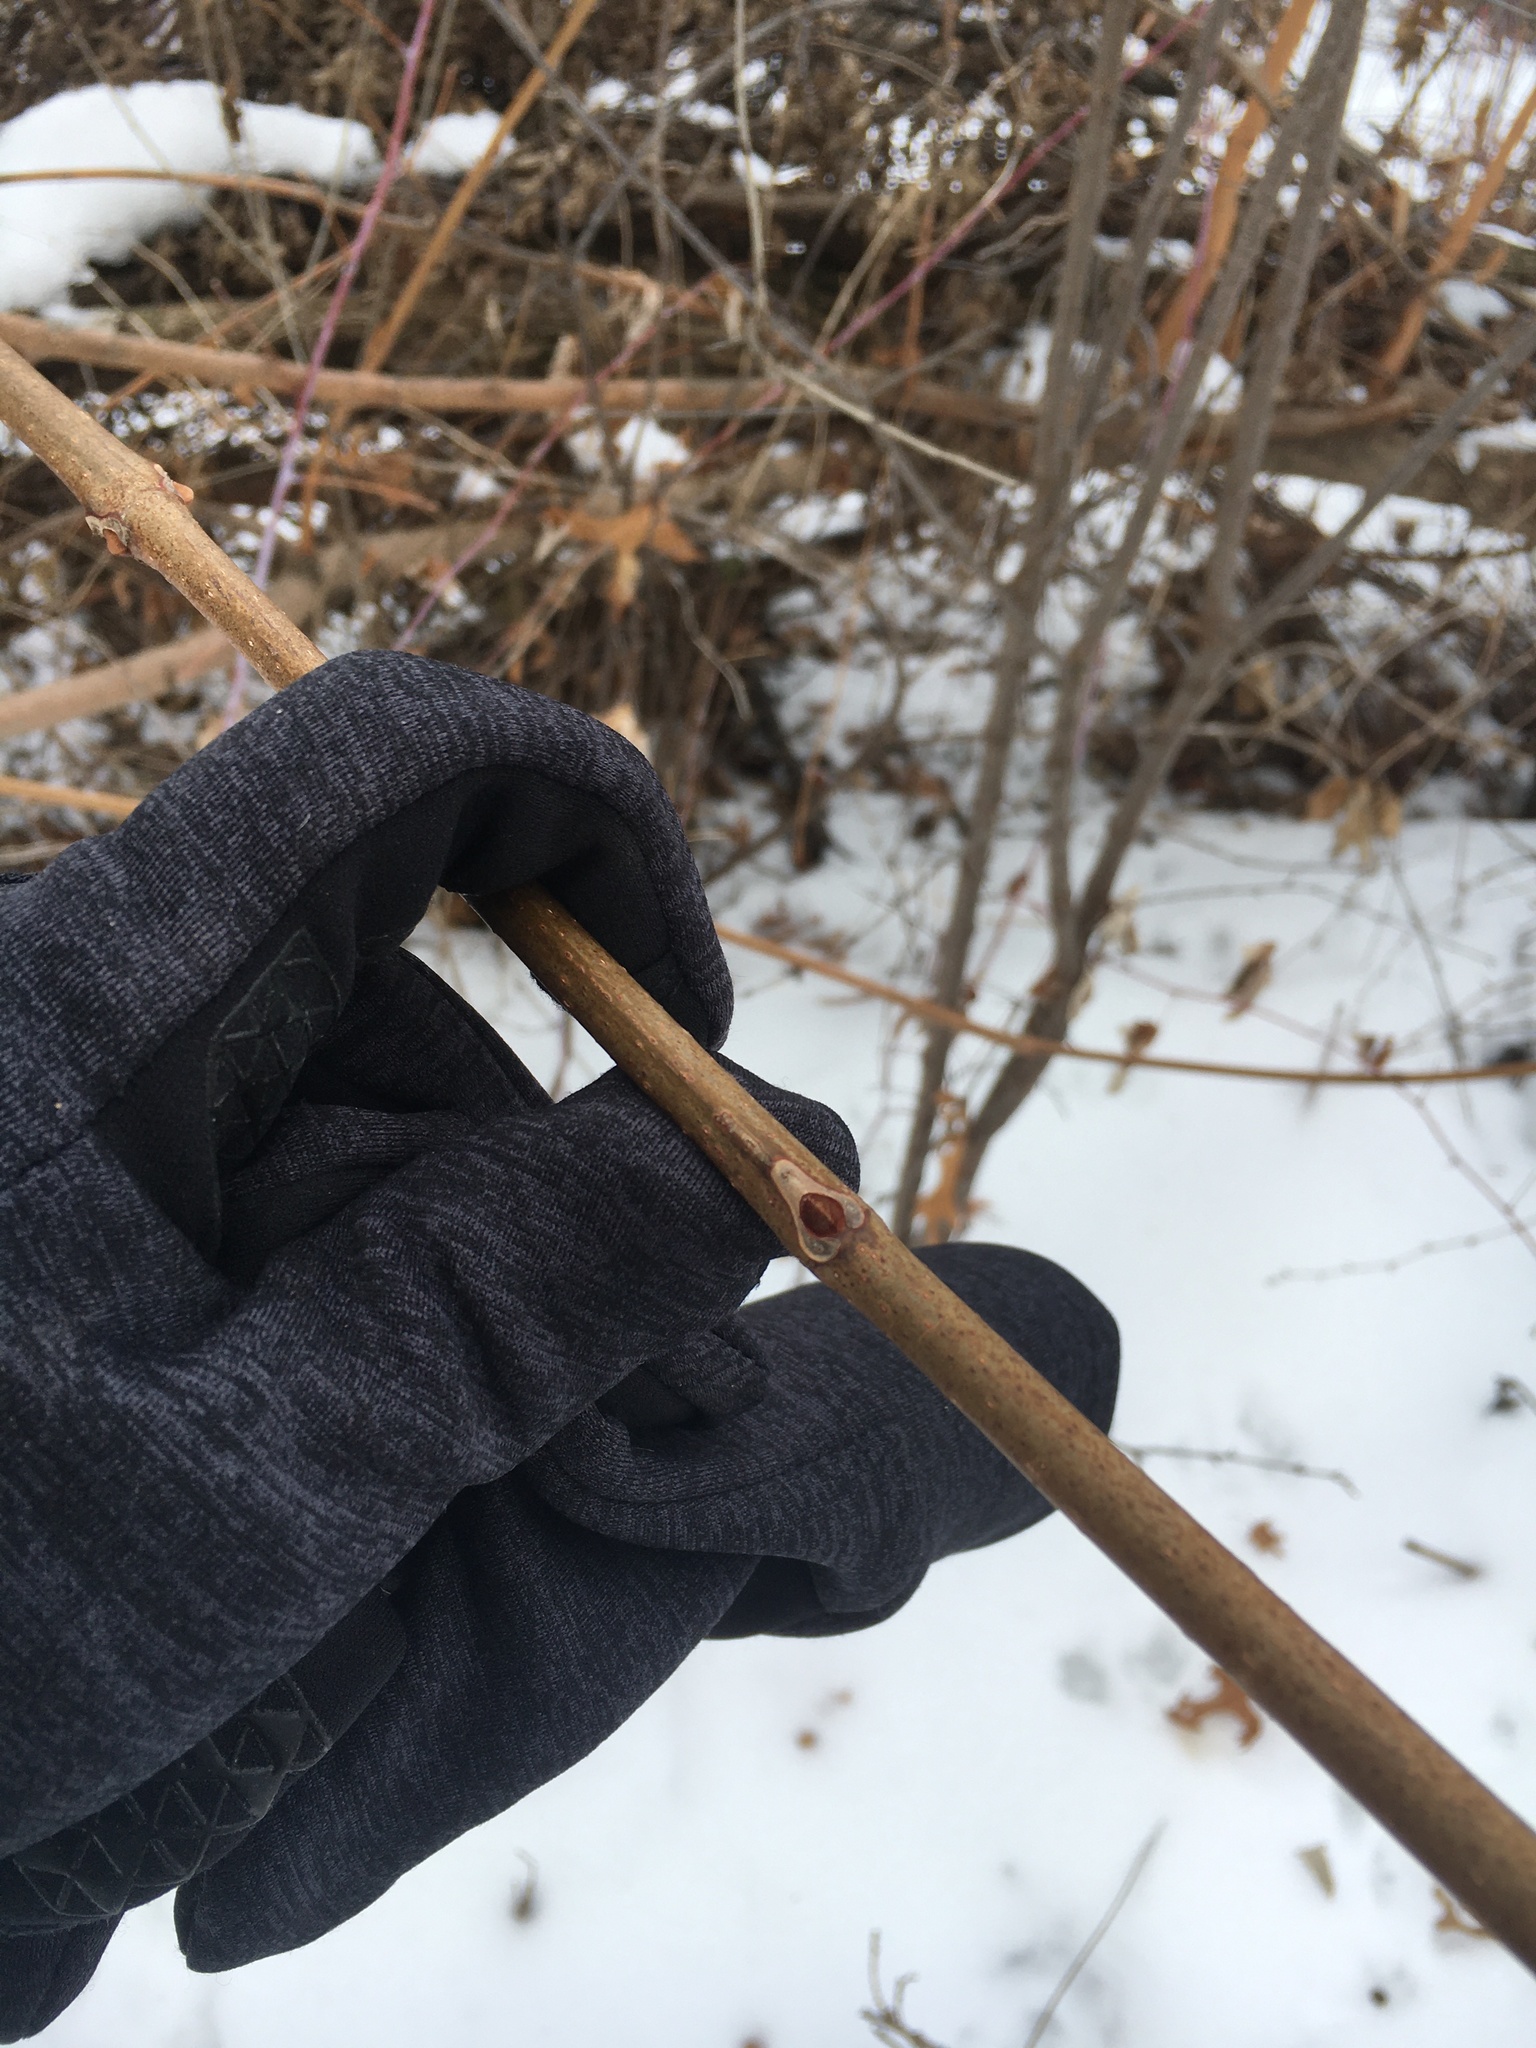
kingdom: Plantae
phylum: Tracheophyta
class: Magnoliopsida
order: Sapindales
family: Rutaceae
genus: Phellodendron
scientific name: Phellodendron amurense
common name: Amur corktree
